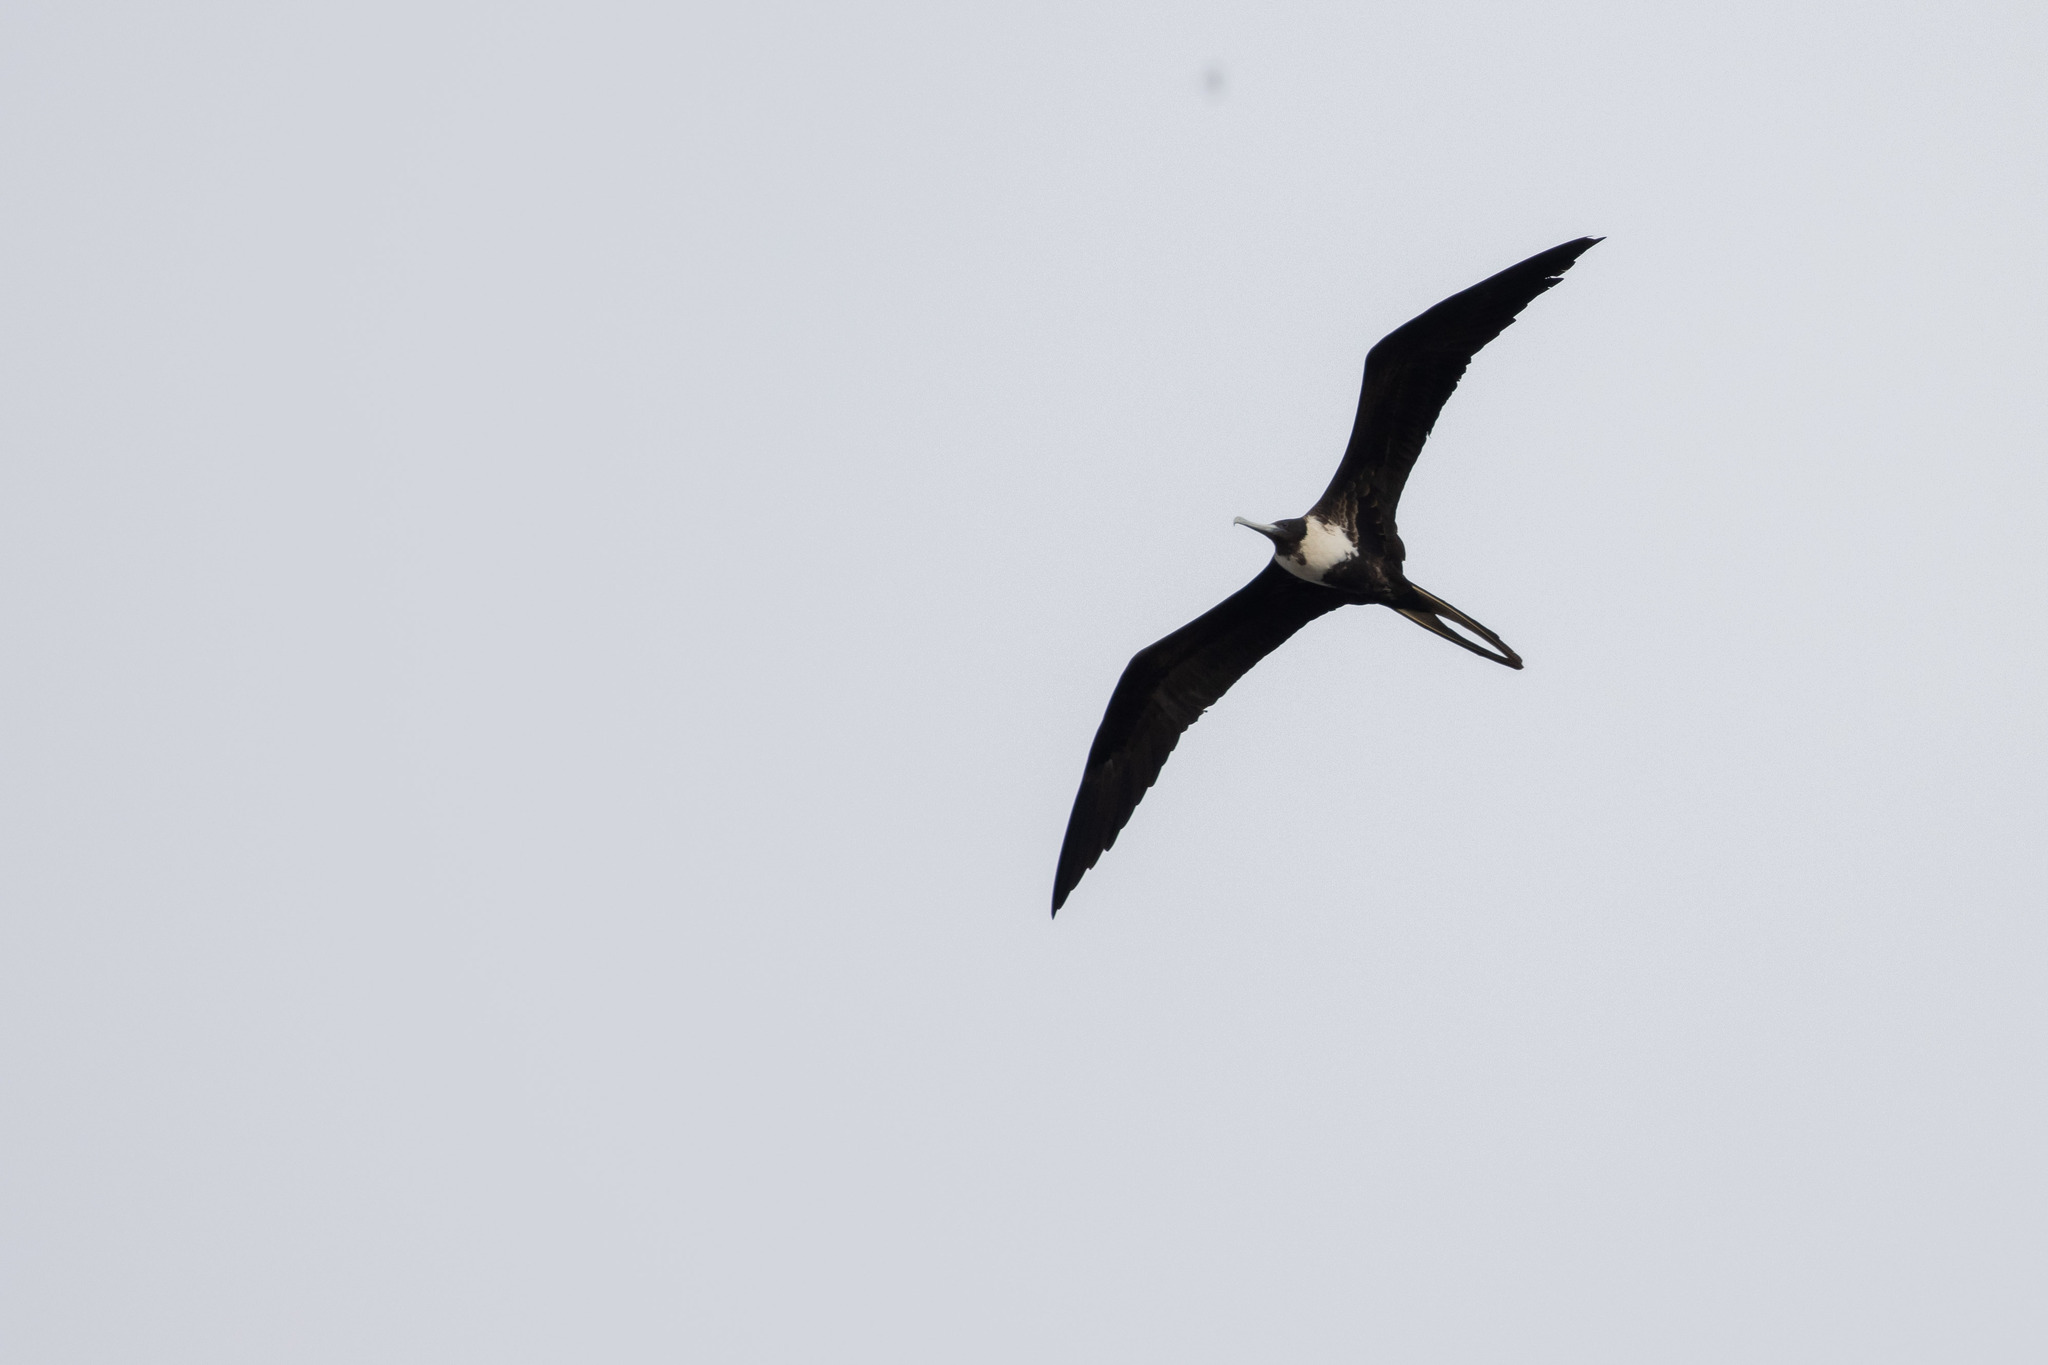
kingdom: Animalia
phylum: Chordata
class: Aves
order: Suliformes
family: Fregatidae
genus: Fregata
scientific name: Fregata magnificens
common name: Magnificent frigatebird
